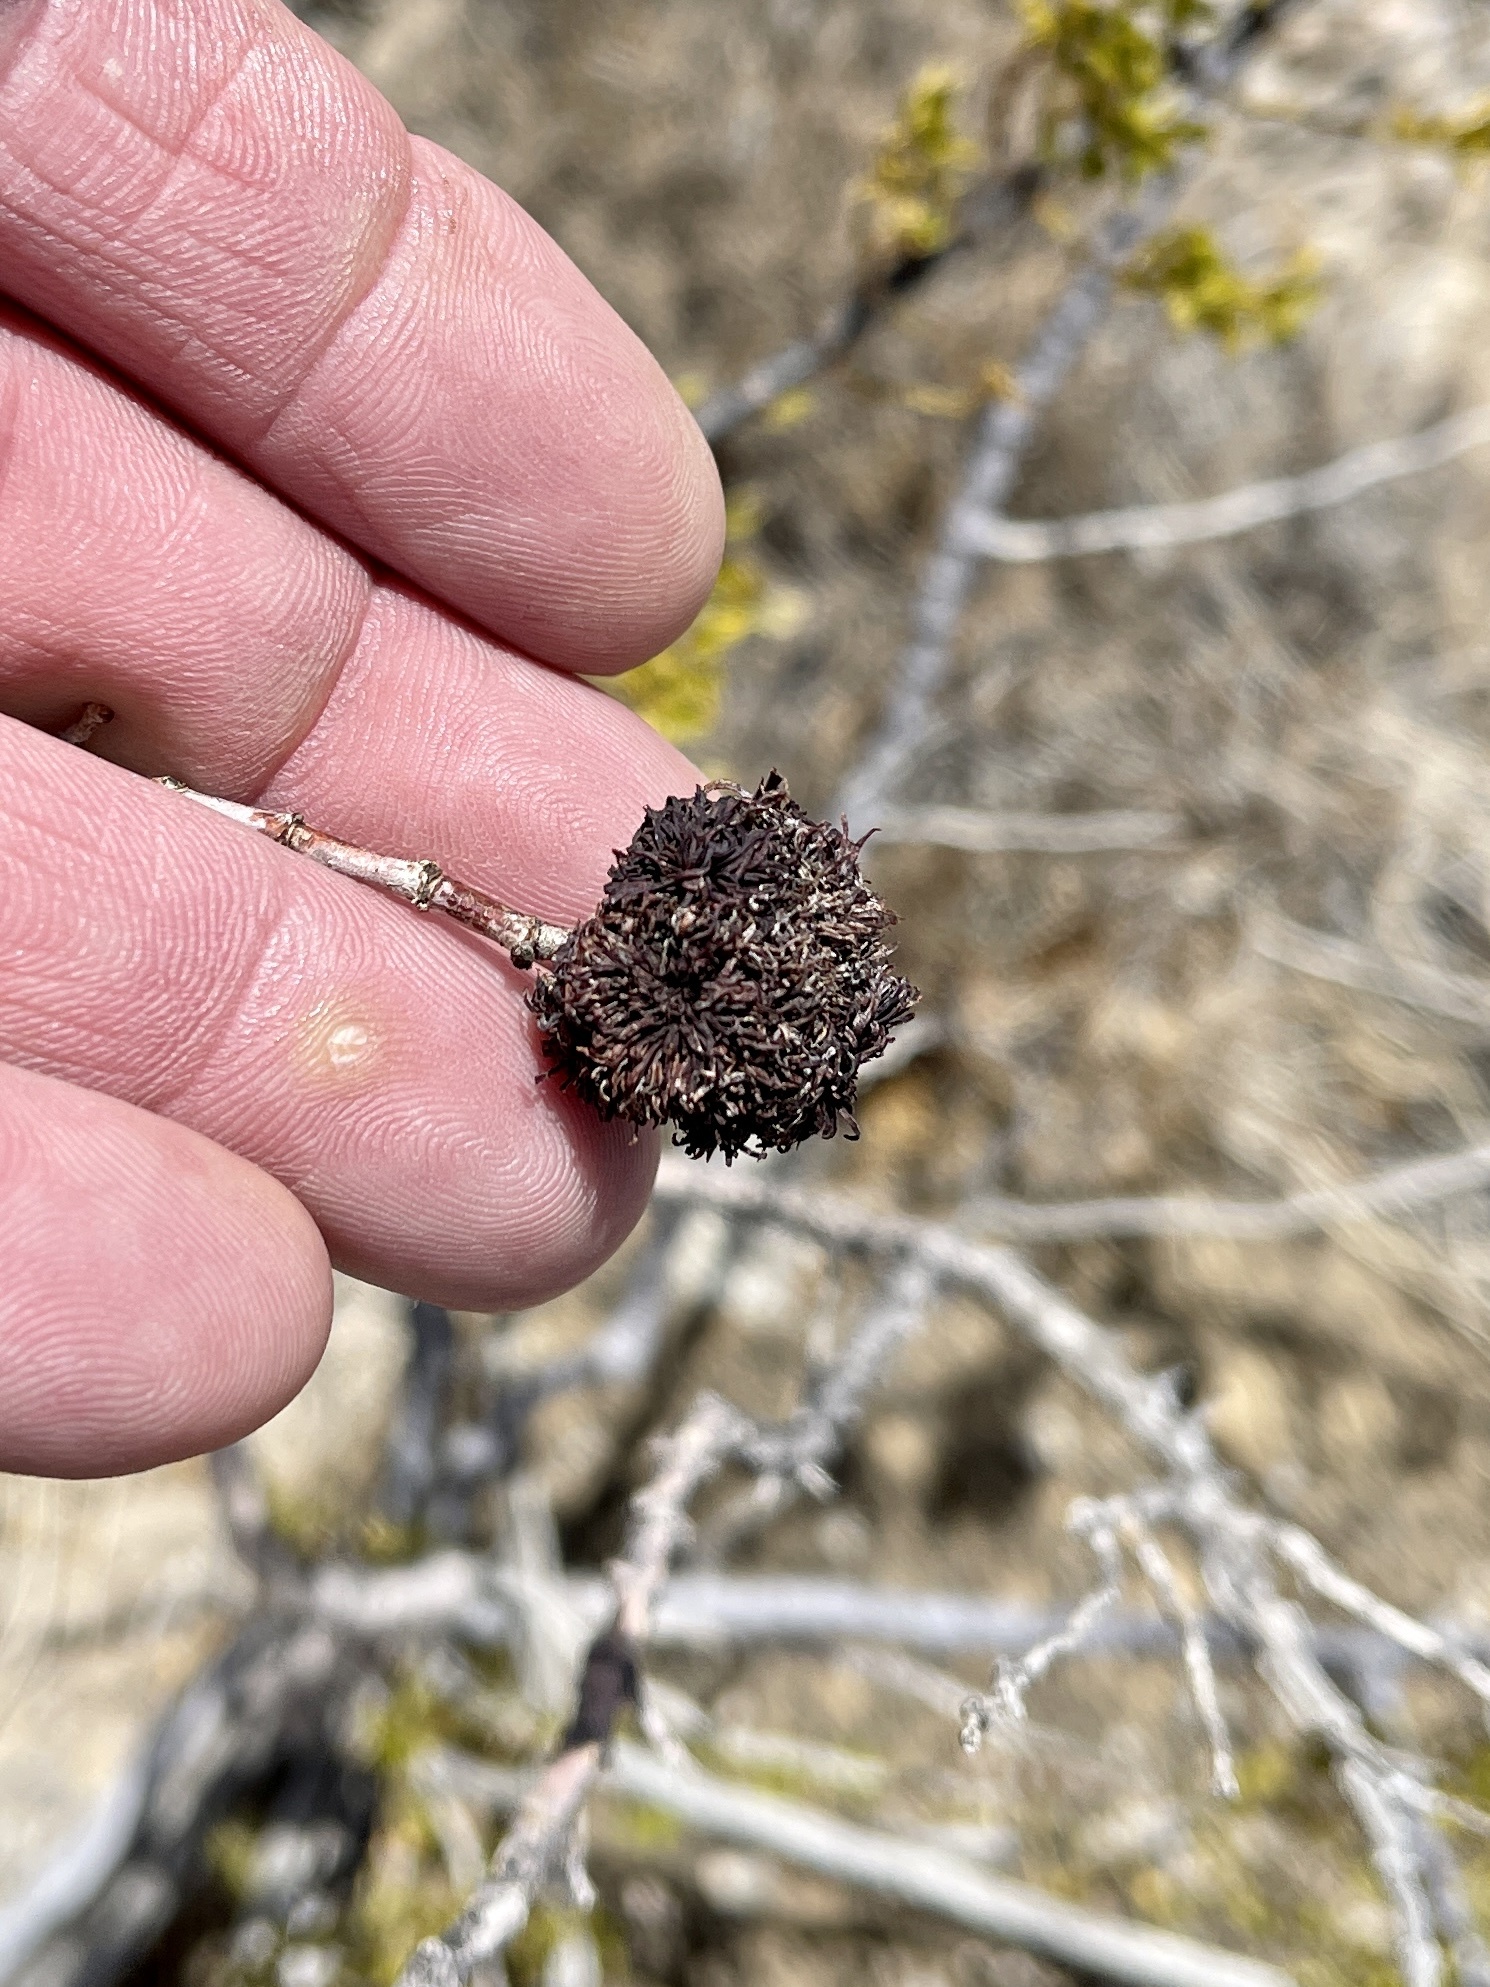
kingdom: Animalia
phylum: Arthropoda
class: Insecta
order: Diptera
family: Cecidomyiidae
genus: Asphondylia
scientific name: Asphondylia auripila
